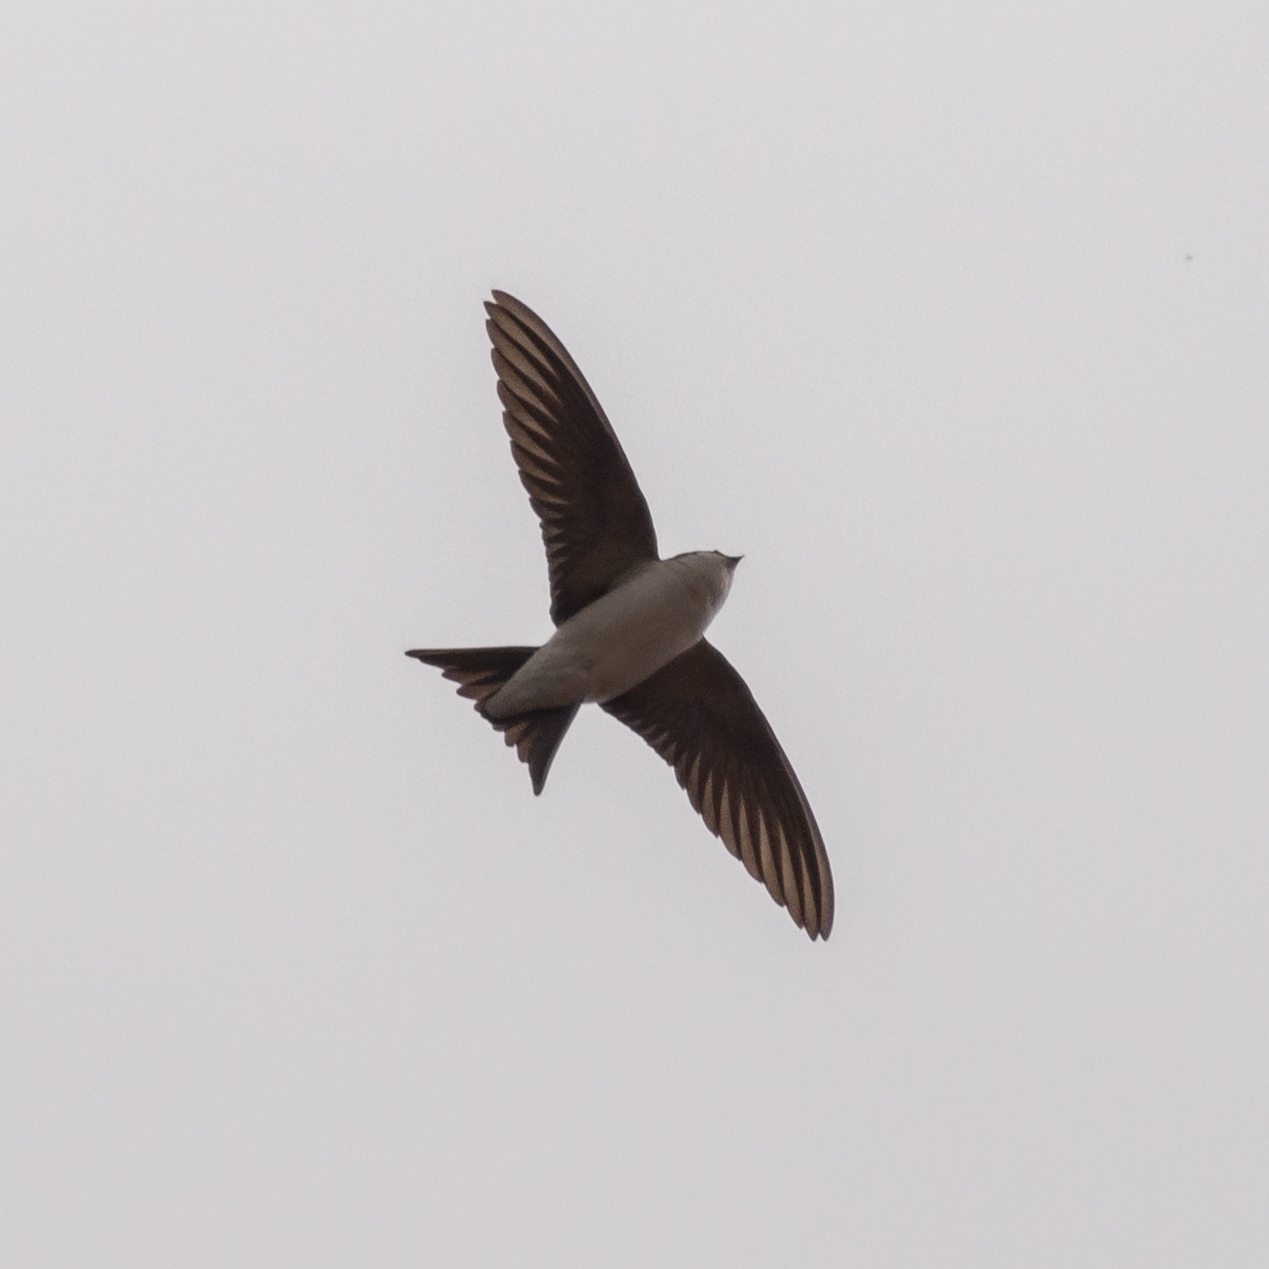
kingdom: Animalia
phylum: Chordata
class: Aves
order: Passeriformes
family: Hirundinidae
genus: Delichon
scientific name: Delichon urbicum
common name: Common house martin
